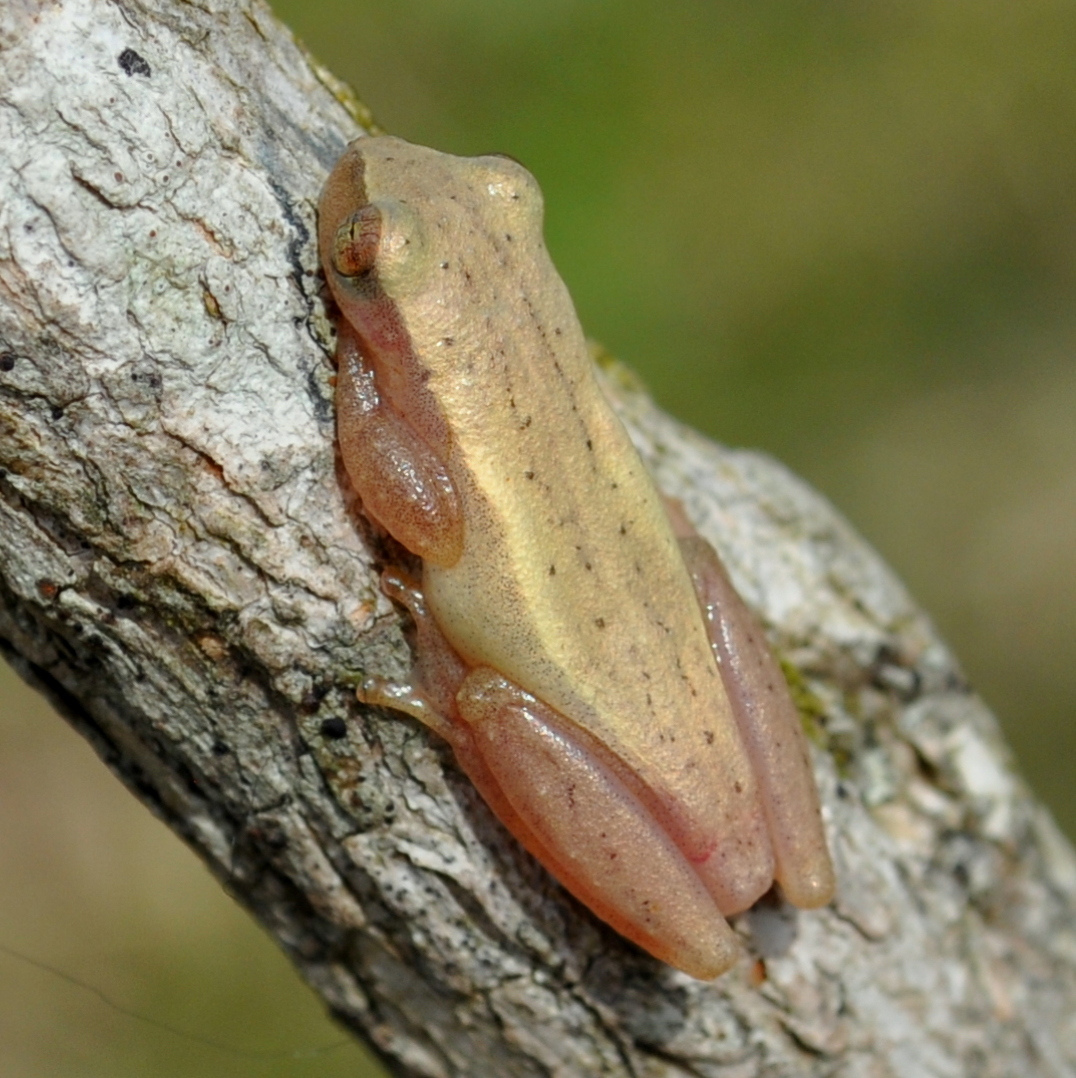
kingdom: Animalia
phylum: Chordata
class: Amphibia
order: Anura
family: Hylidae
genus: Dendropsophus
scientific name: Dendropsophus sanborni
